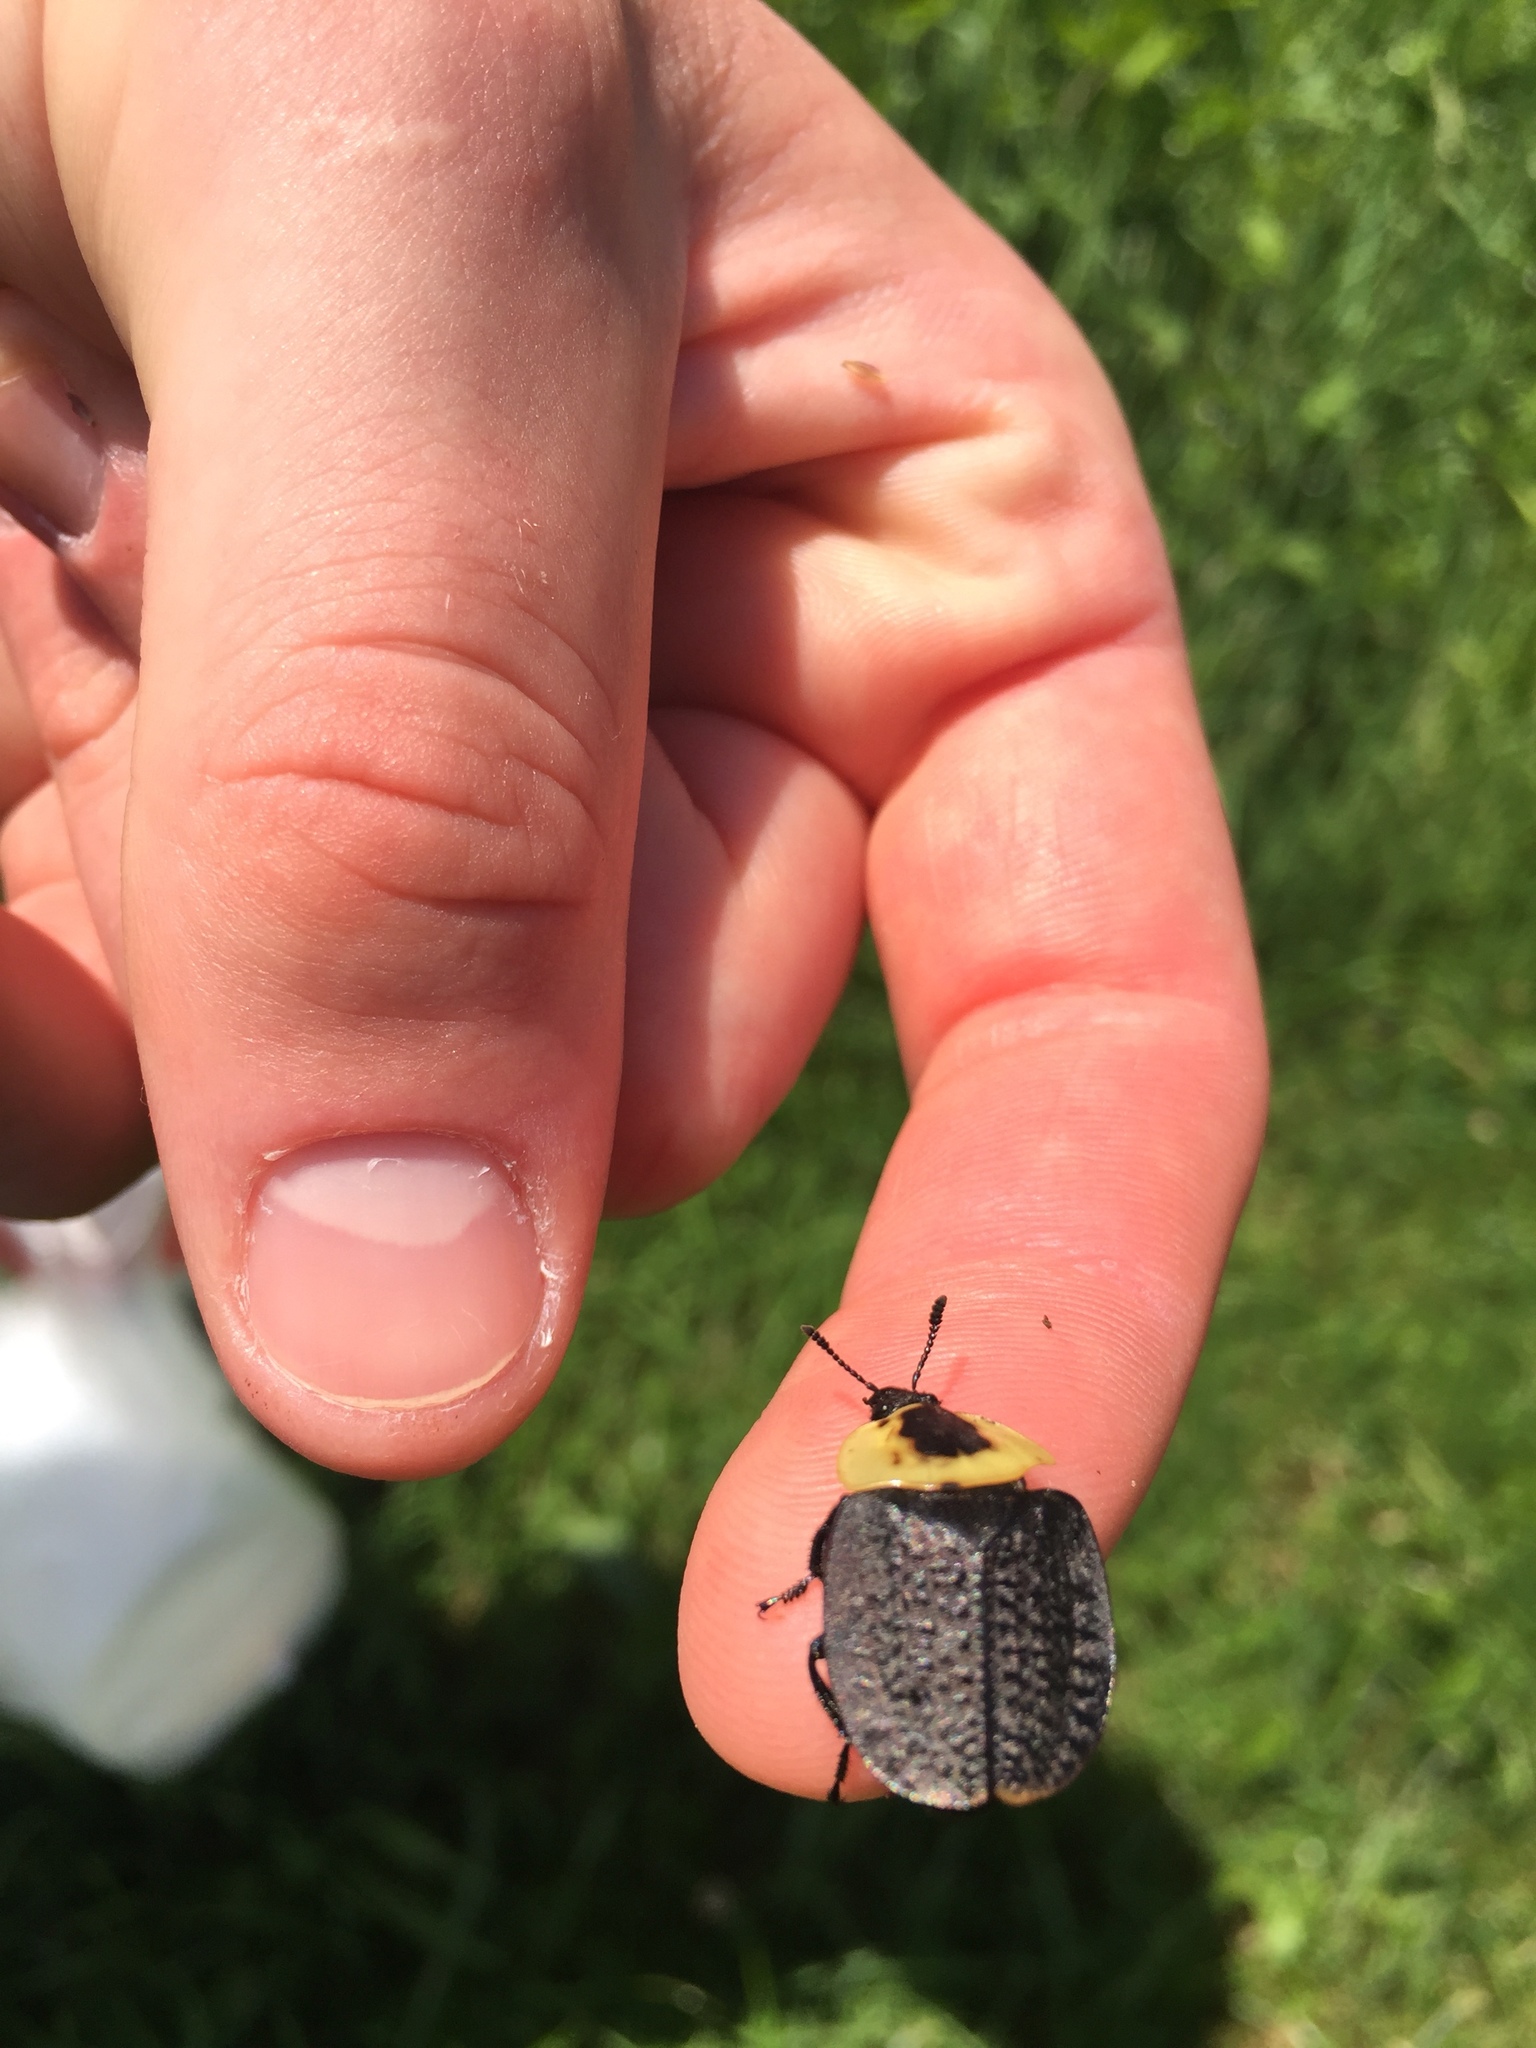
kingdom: Animalia
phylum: Arthropoda
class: Insecta
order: Coleoptera
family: Staphylinidae
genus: Necrophila
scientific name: Necrophila americana
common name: American carrion beetle
